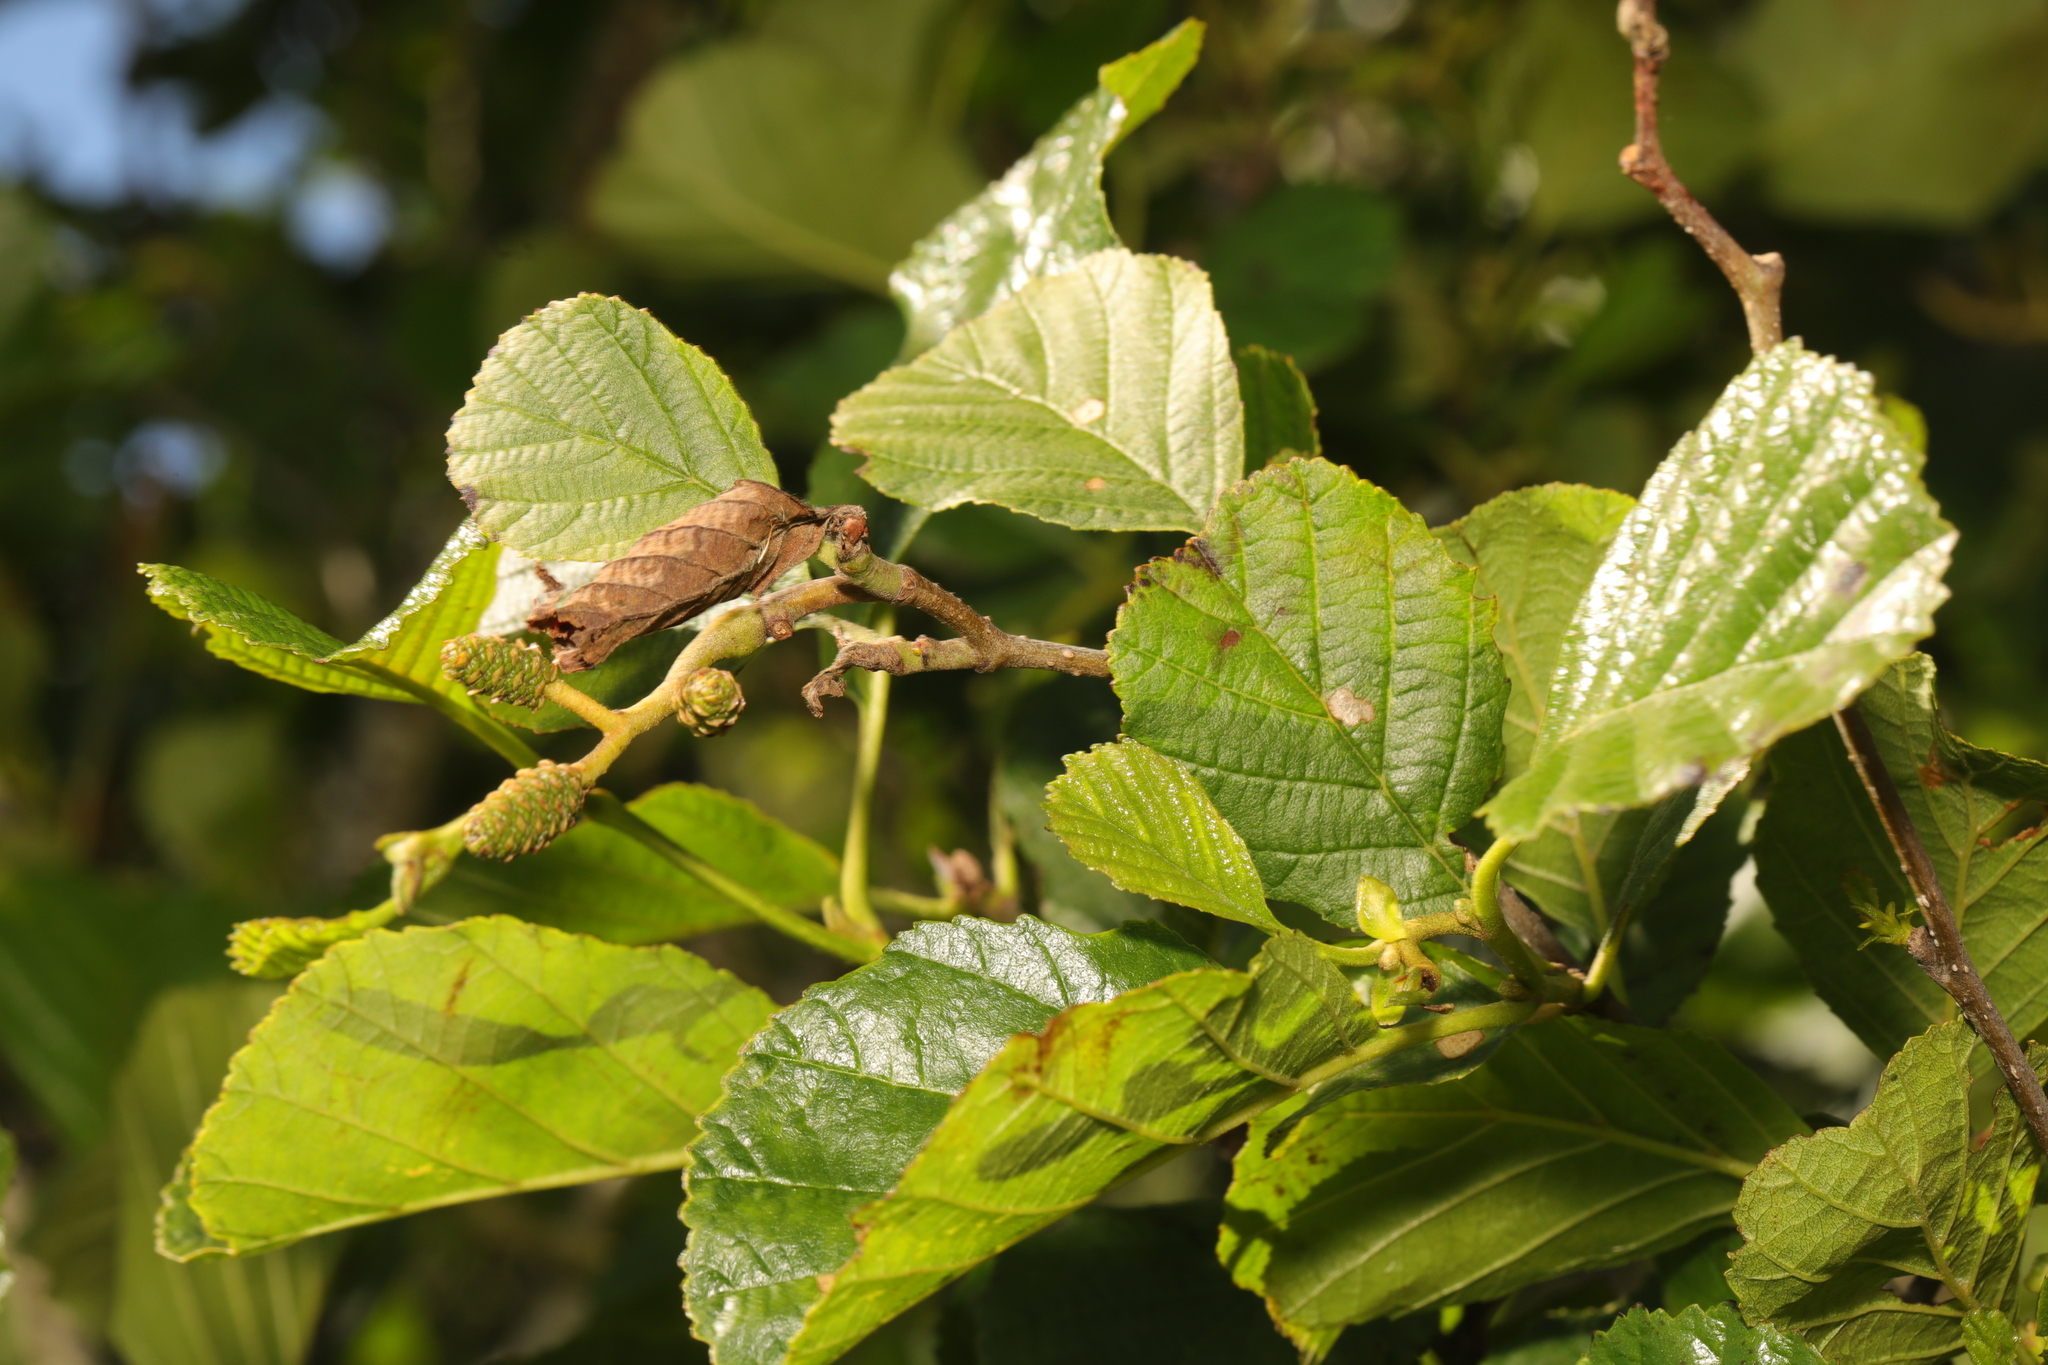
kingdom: Plantae
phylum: Tracheophyta
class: Magnoliopsida
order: Fagales
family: Betulaceae
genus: Alnus
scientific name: Alnus glutinosa
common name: Black alder
